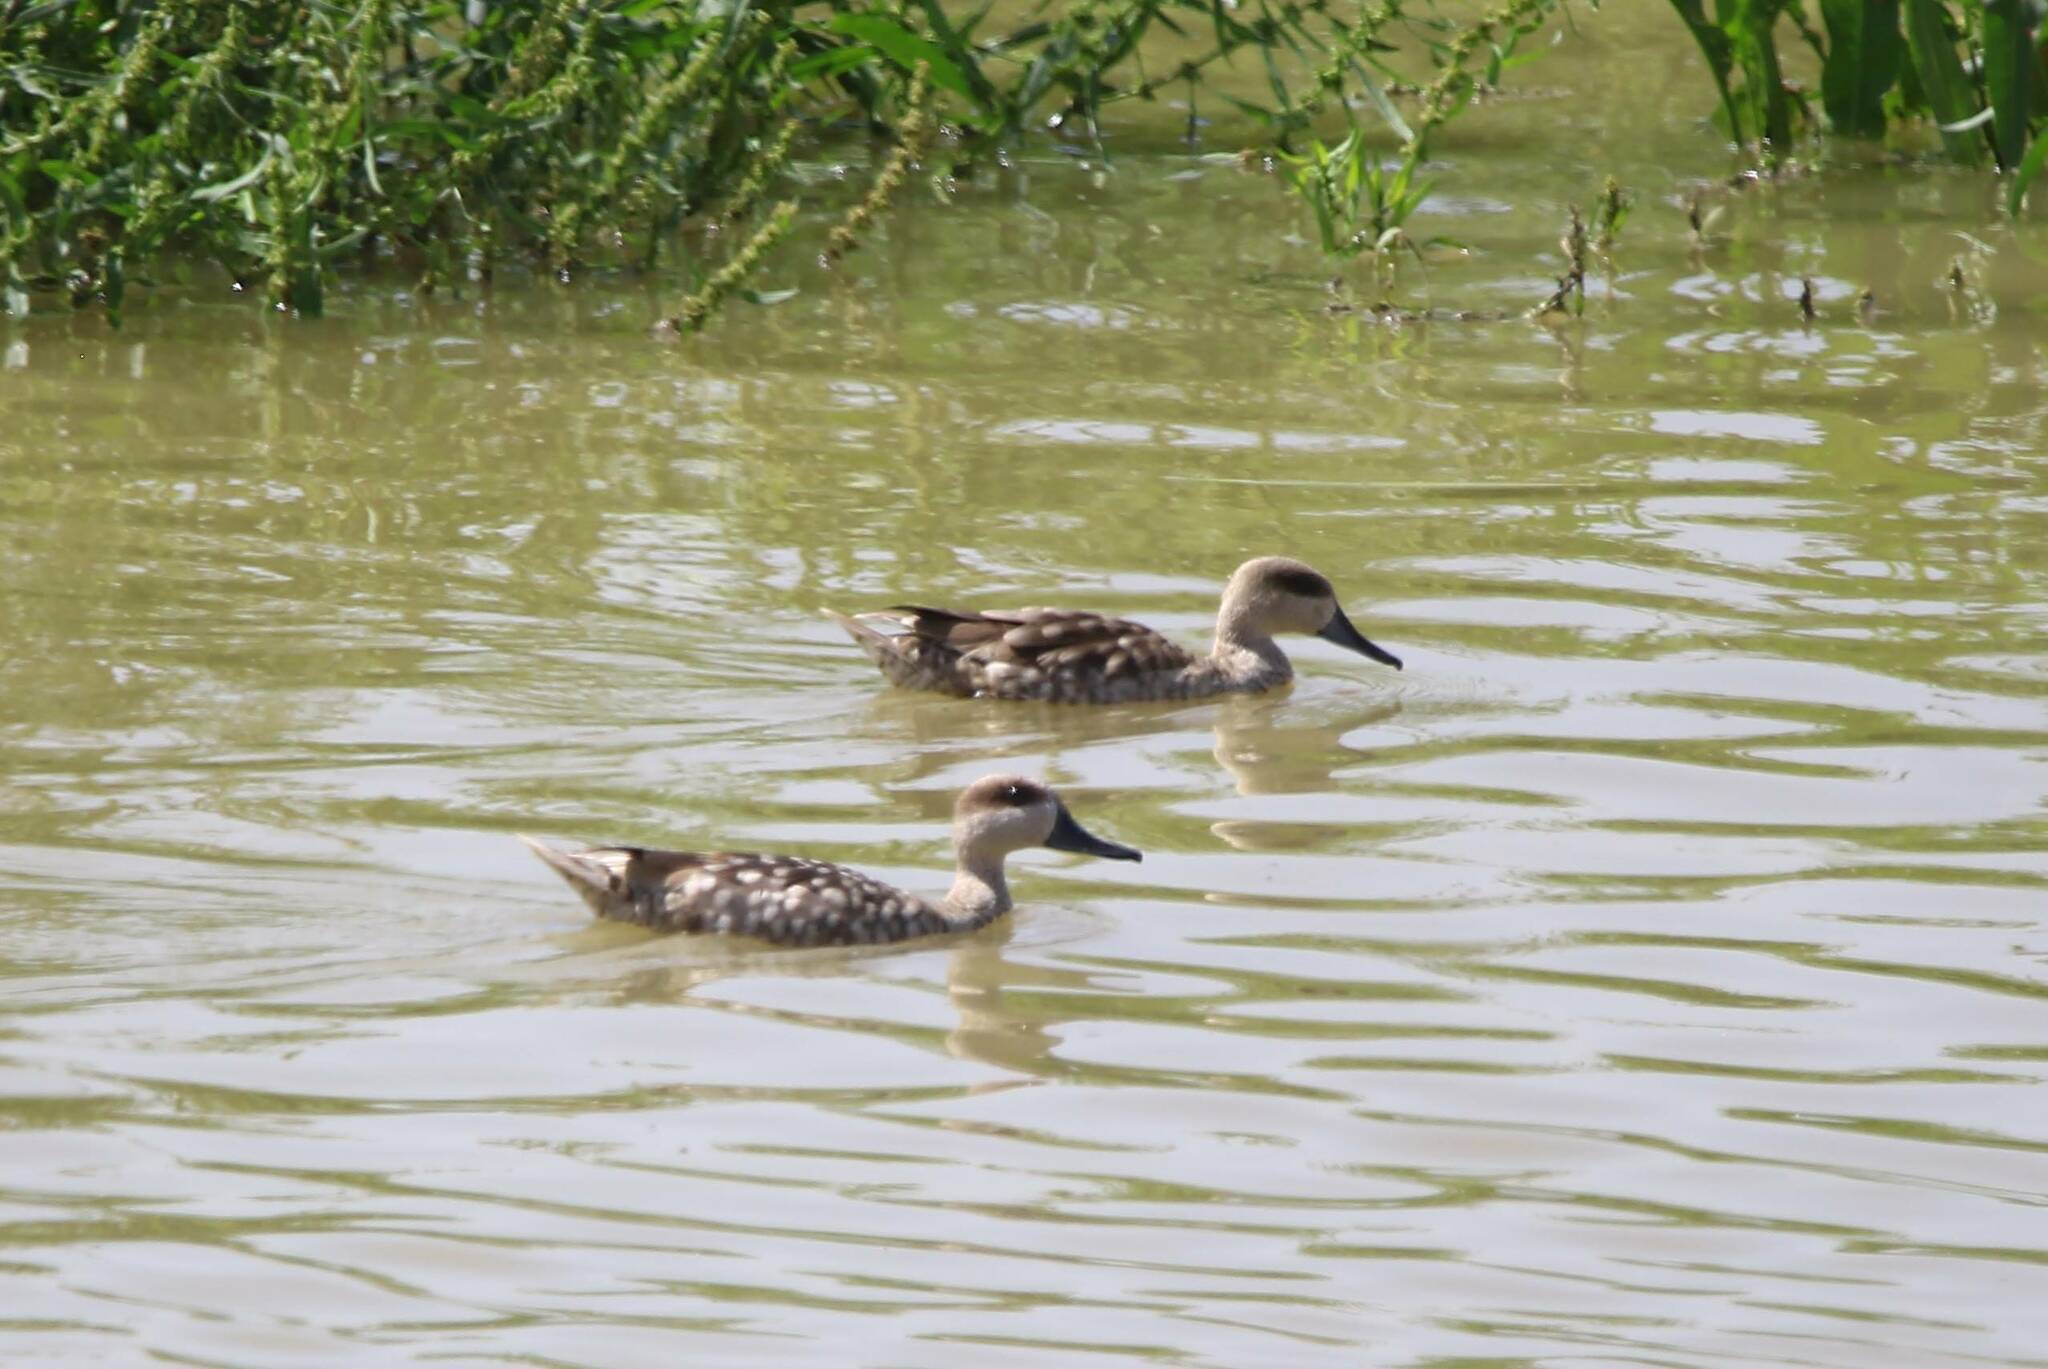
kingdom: Animalia
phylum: Chordata
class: Aves
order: Anseriformes
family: Anatidae
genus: Marmaronetta
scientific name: Marmaronetta angustirostris
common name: Marbled duck
